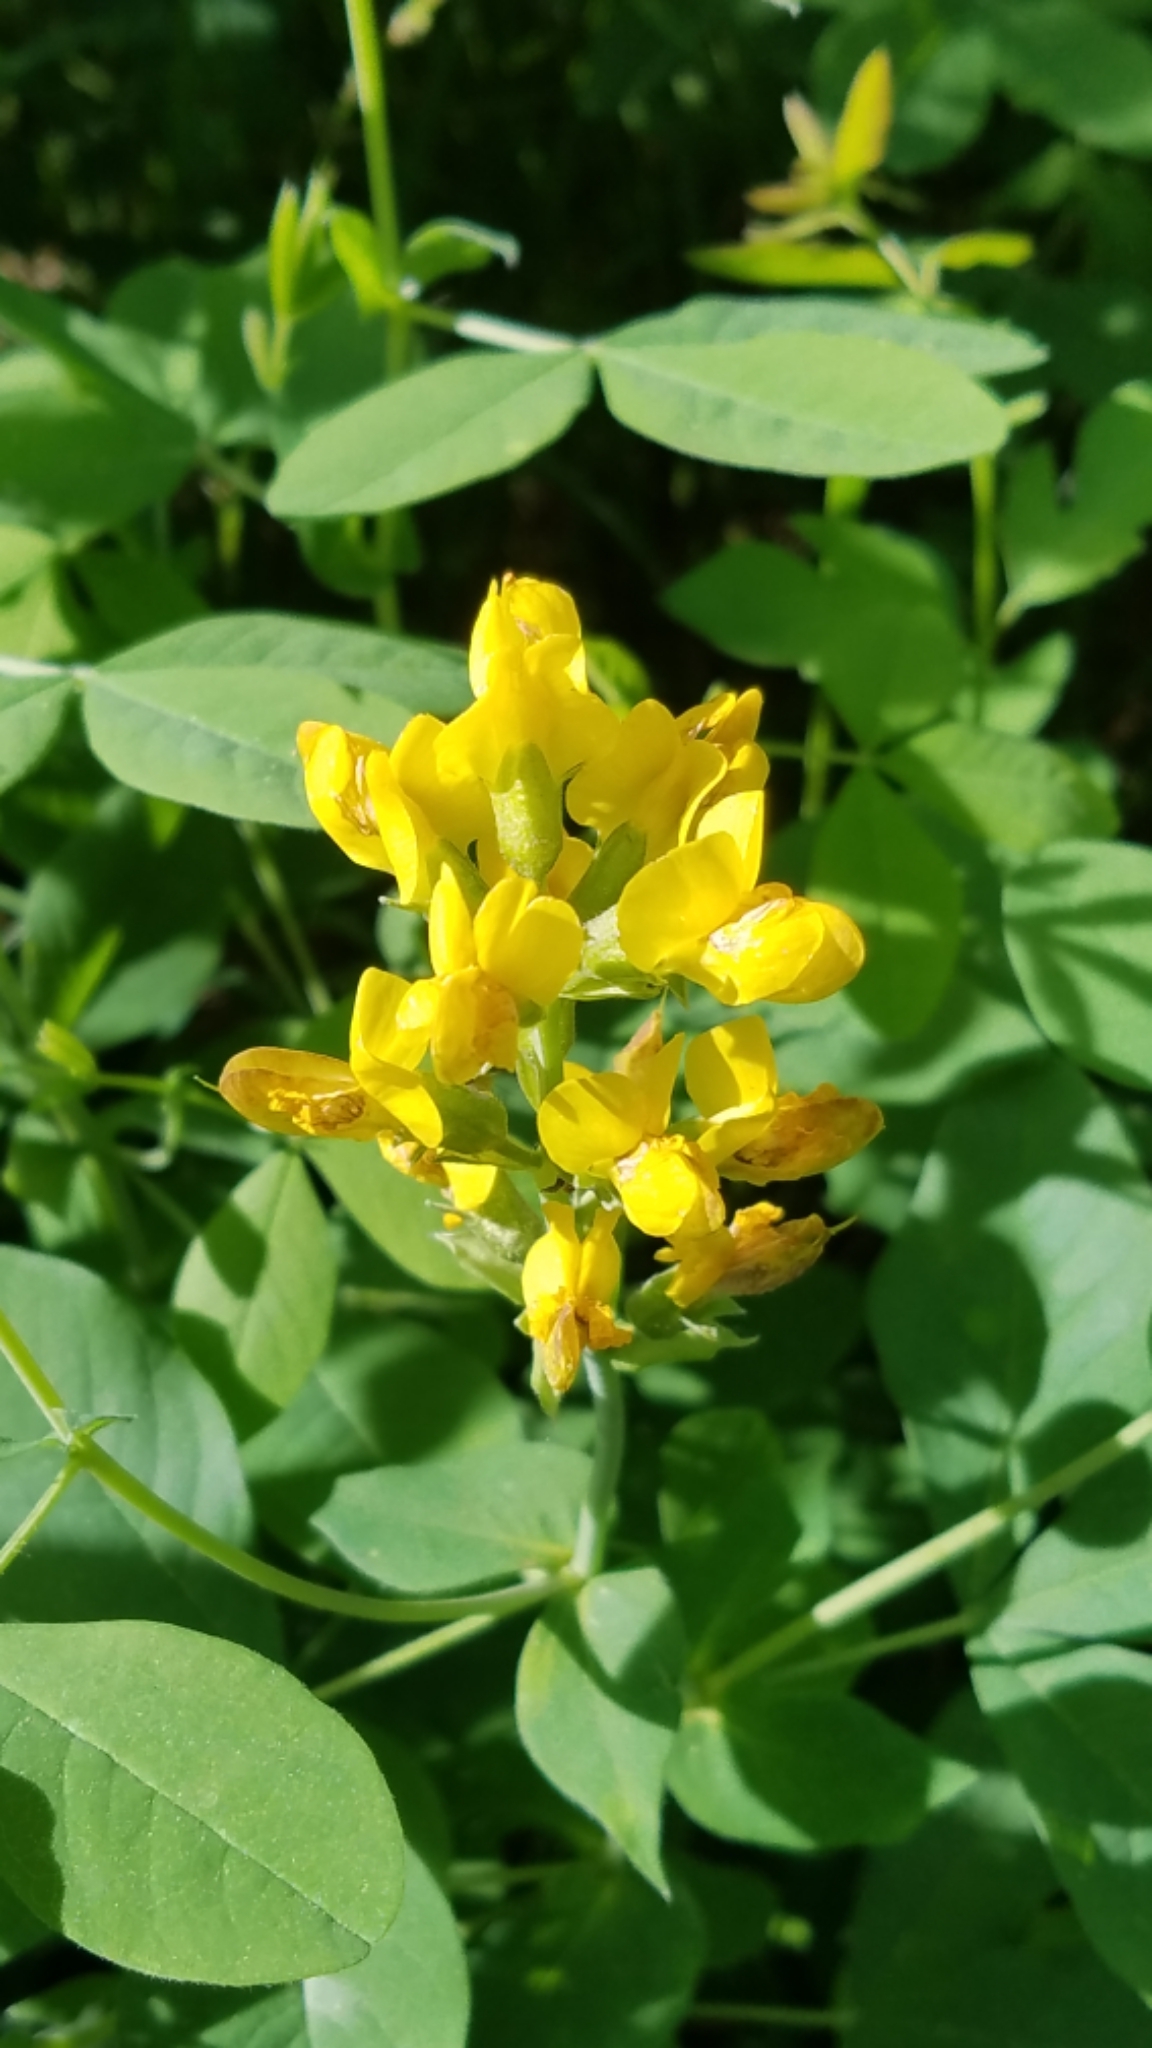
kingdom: Plantae
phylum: Tracheophyta
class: Magnoliopsida
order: Fabales
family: Fabaceae
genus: Thermopsis
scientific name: Thermopsis montana
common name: False lupin
